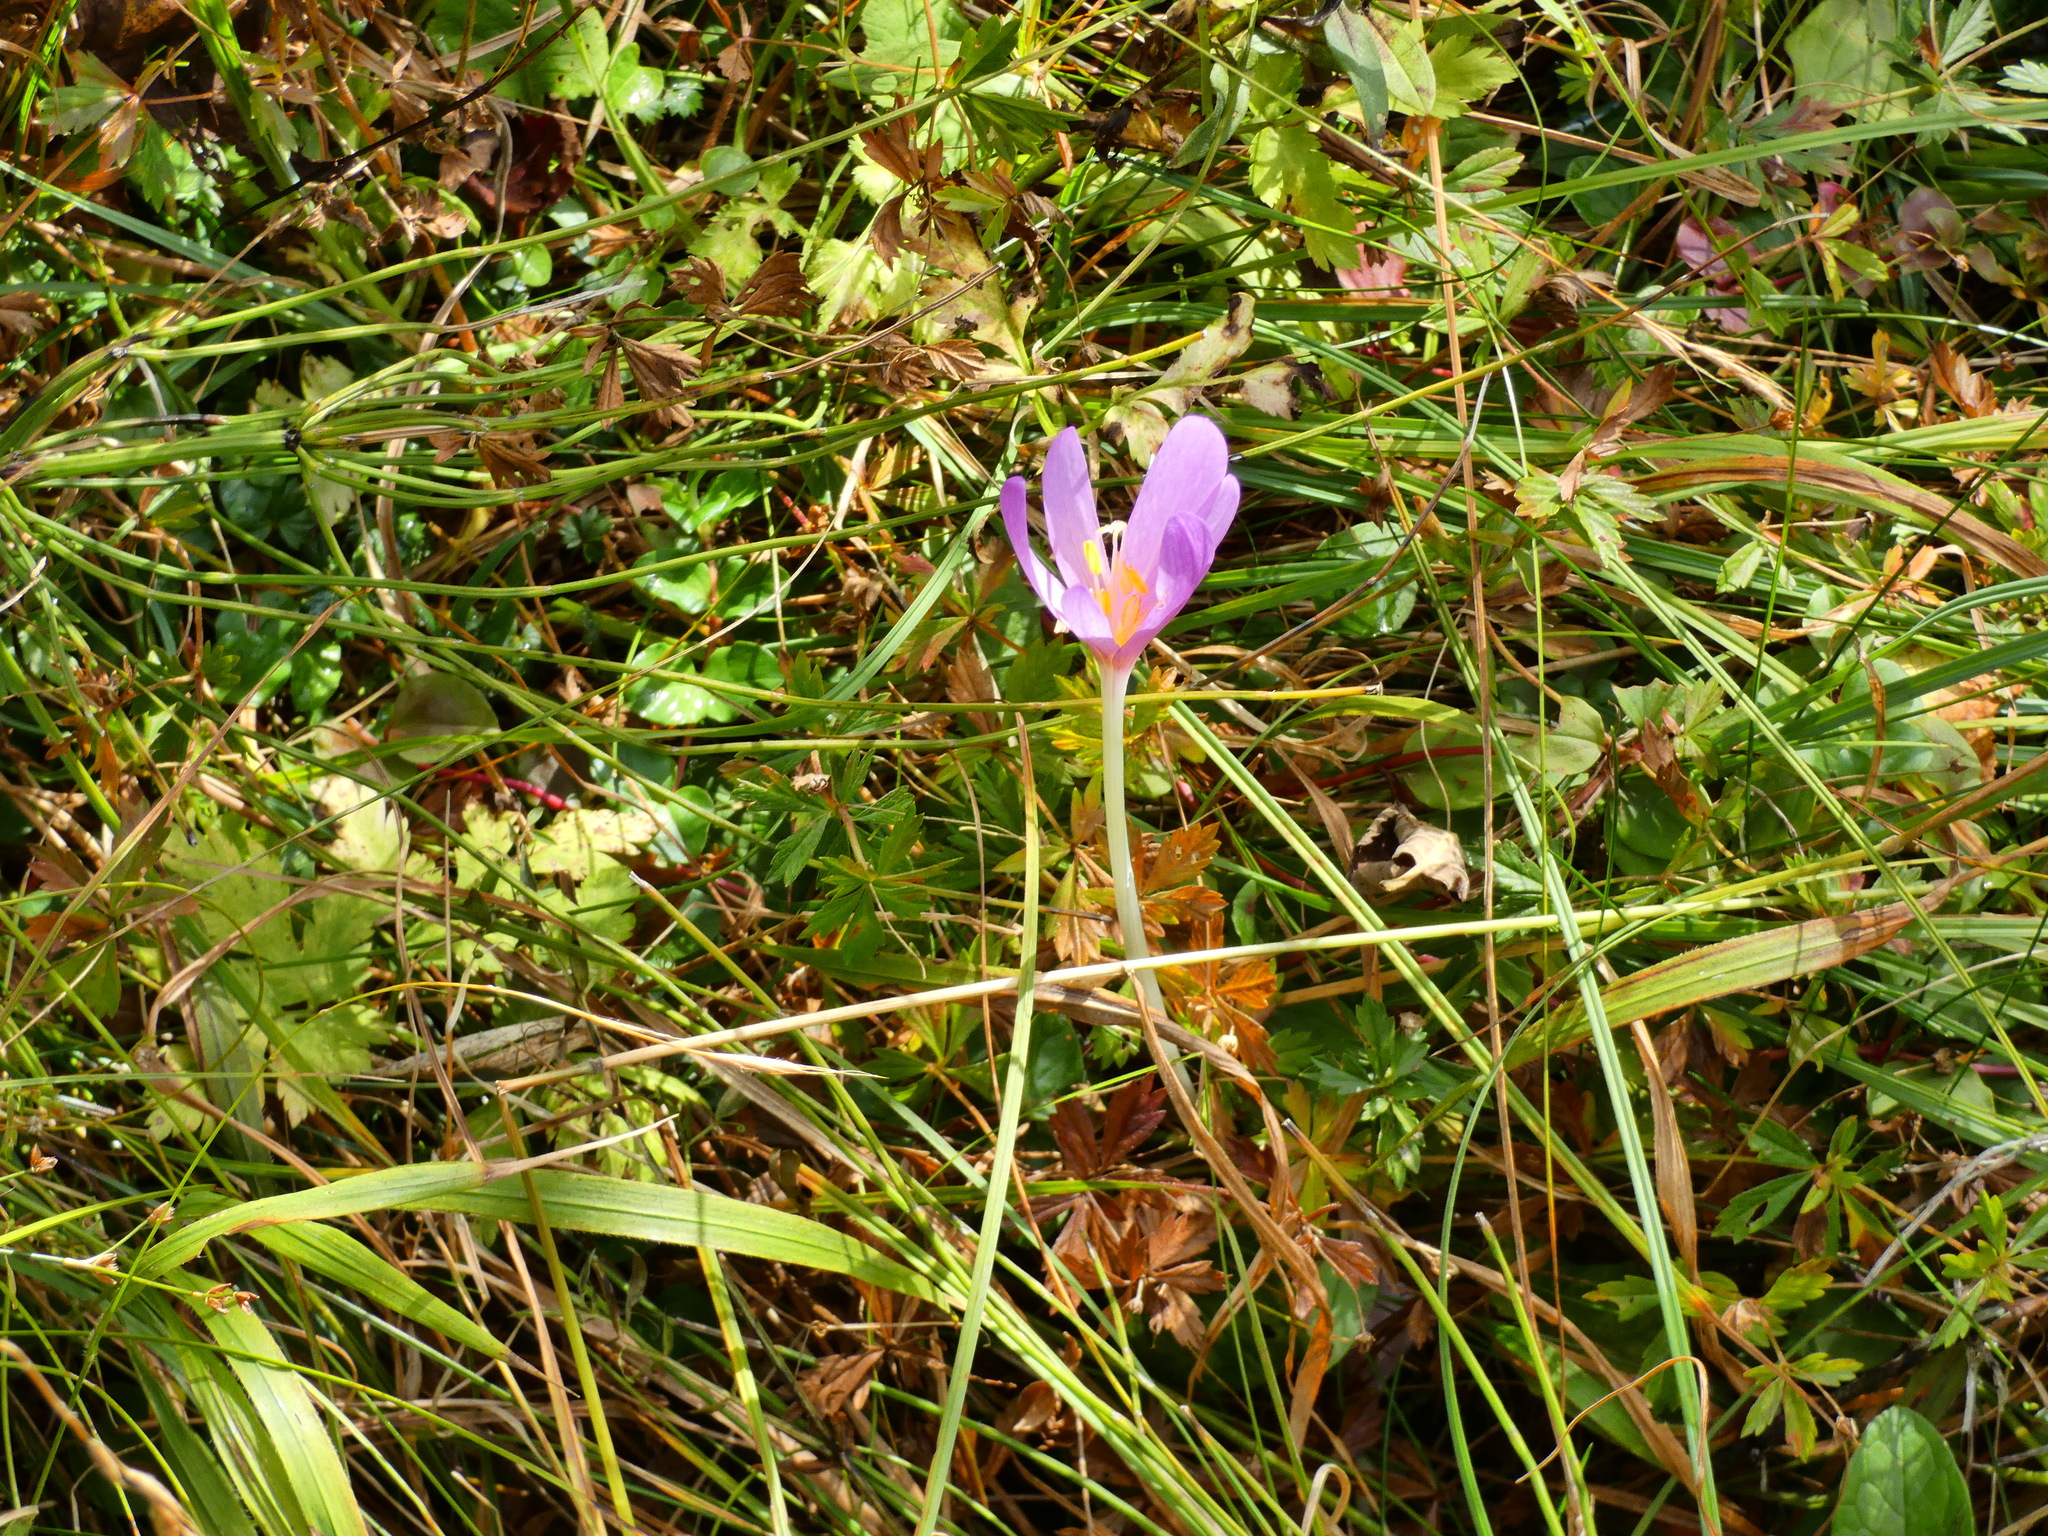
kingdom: Plantae
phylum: Tracheophyta
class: Liliopsida
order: Liliales
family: Colchicaceae
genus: Colchicum
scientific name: Colchicum autumnale
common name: Autumn crocus
